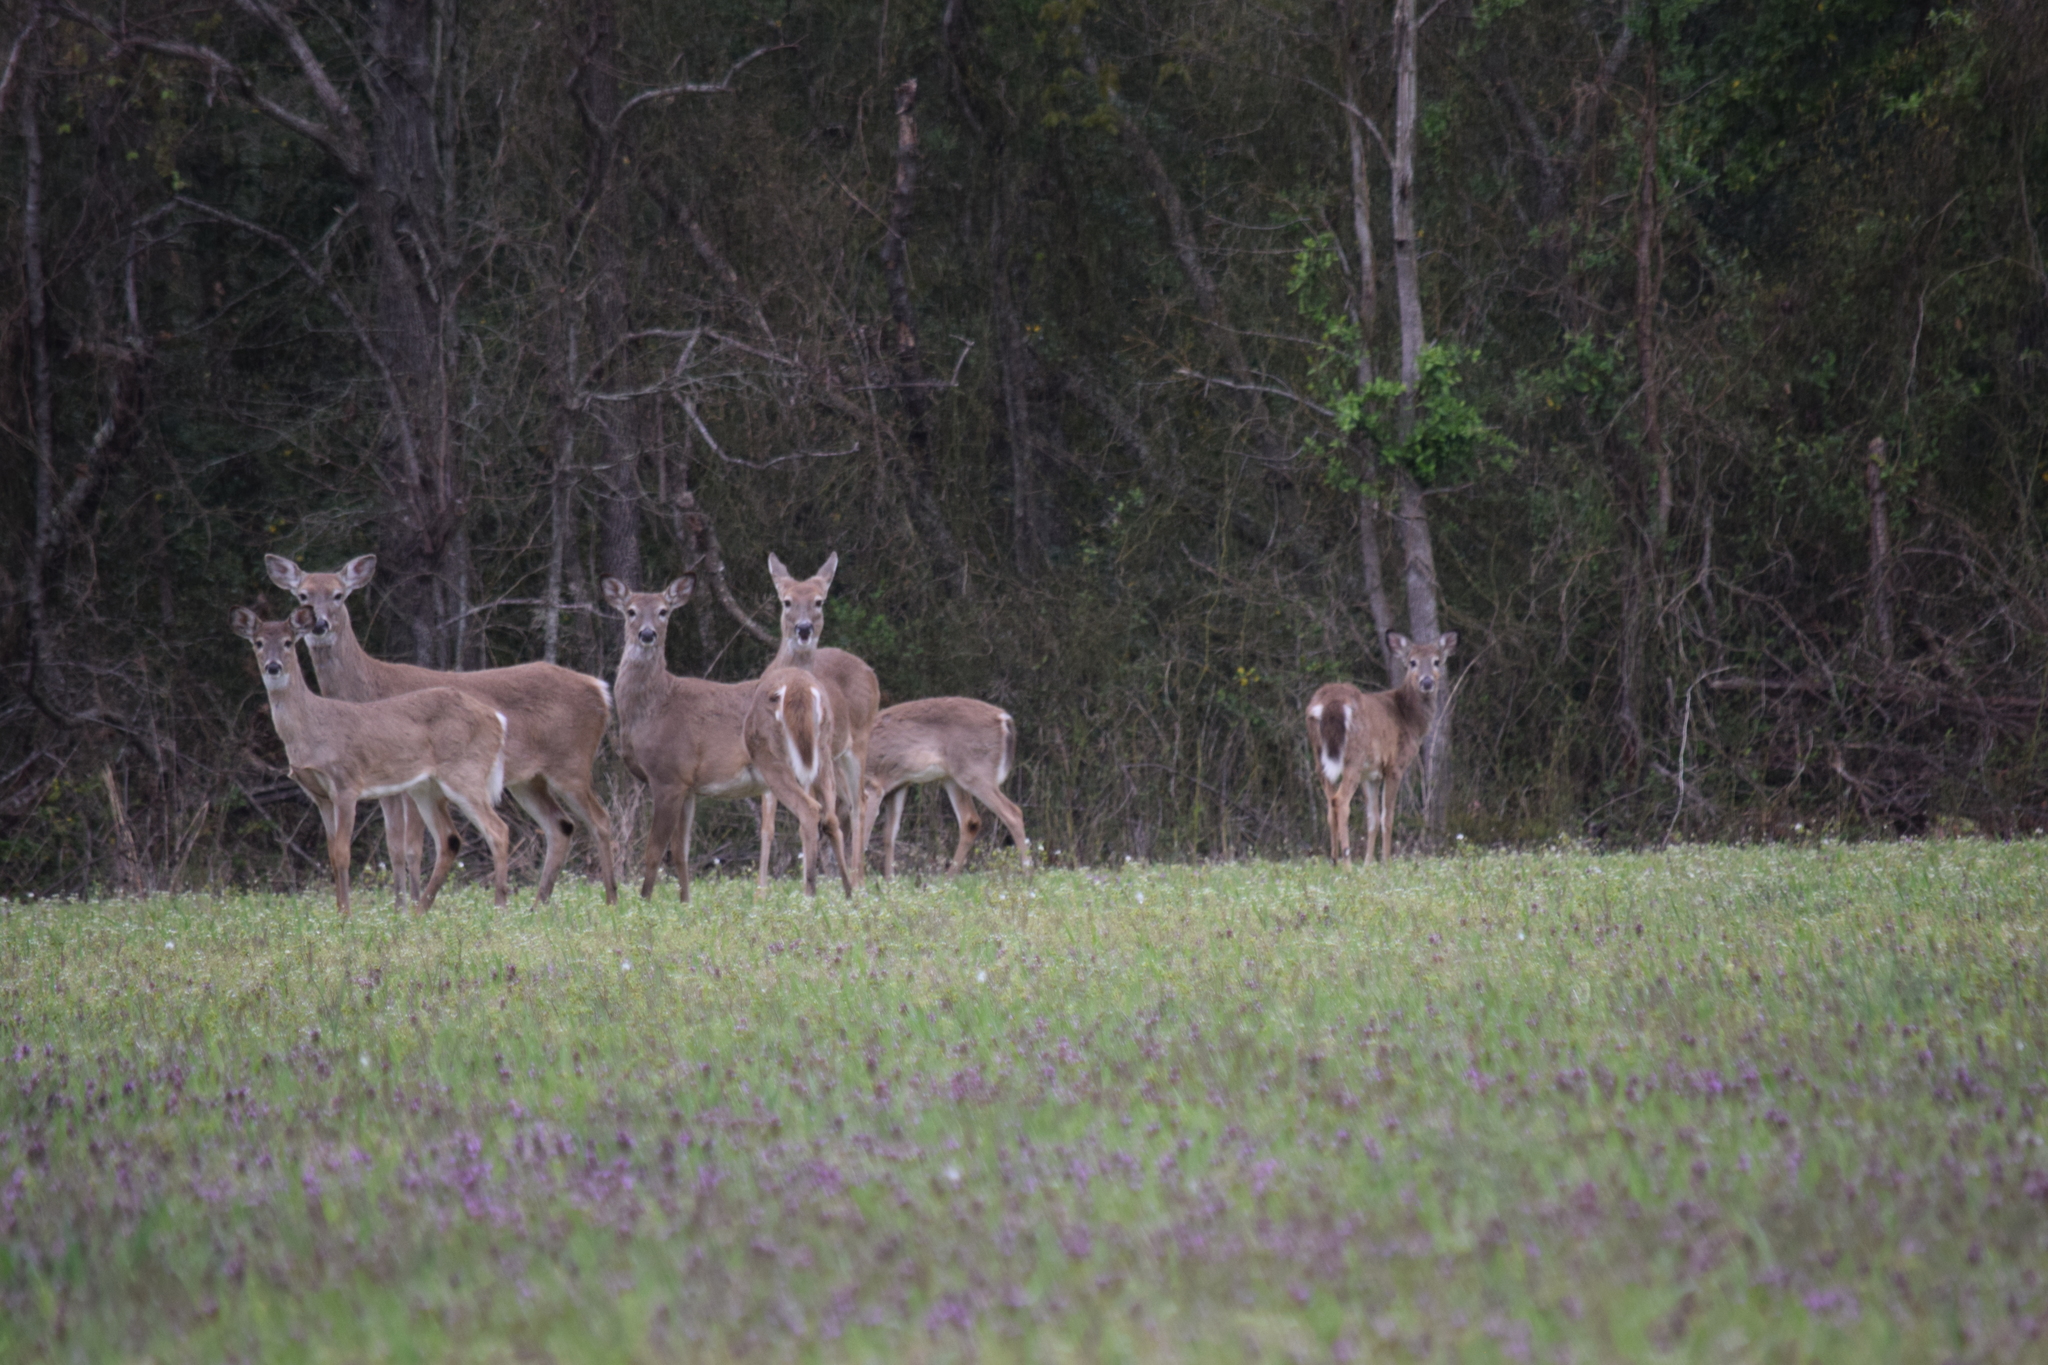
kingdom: Animalia
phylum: Chordata
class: Mammalia
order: Artiodactyla
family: Cervidae
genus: Odocoileus
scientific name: Odocoileus virginianus
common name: White-tailed deer
